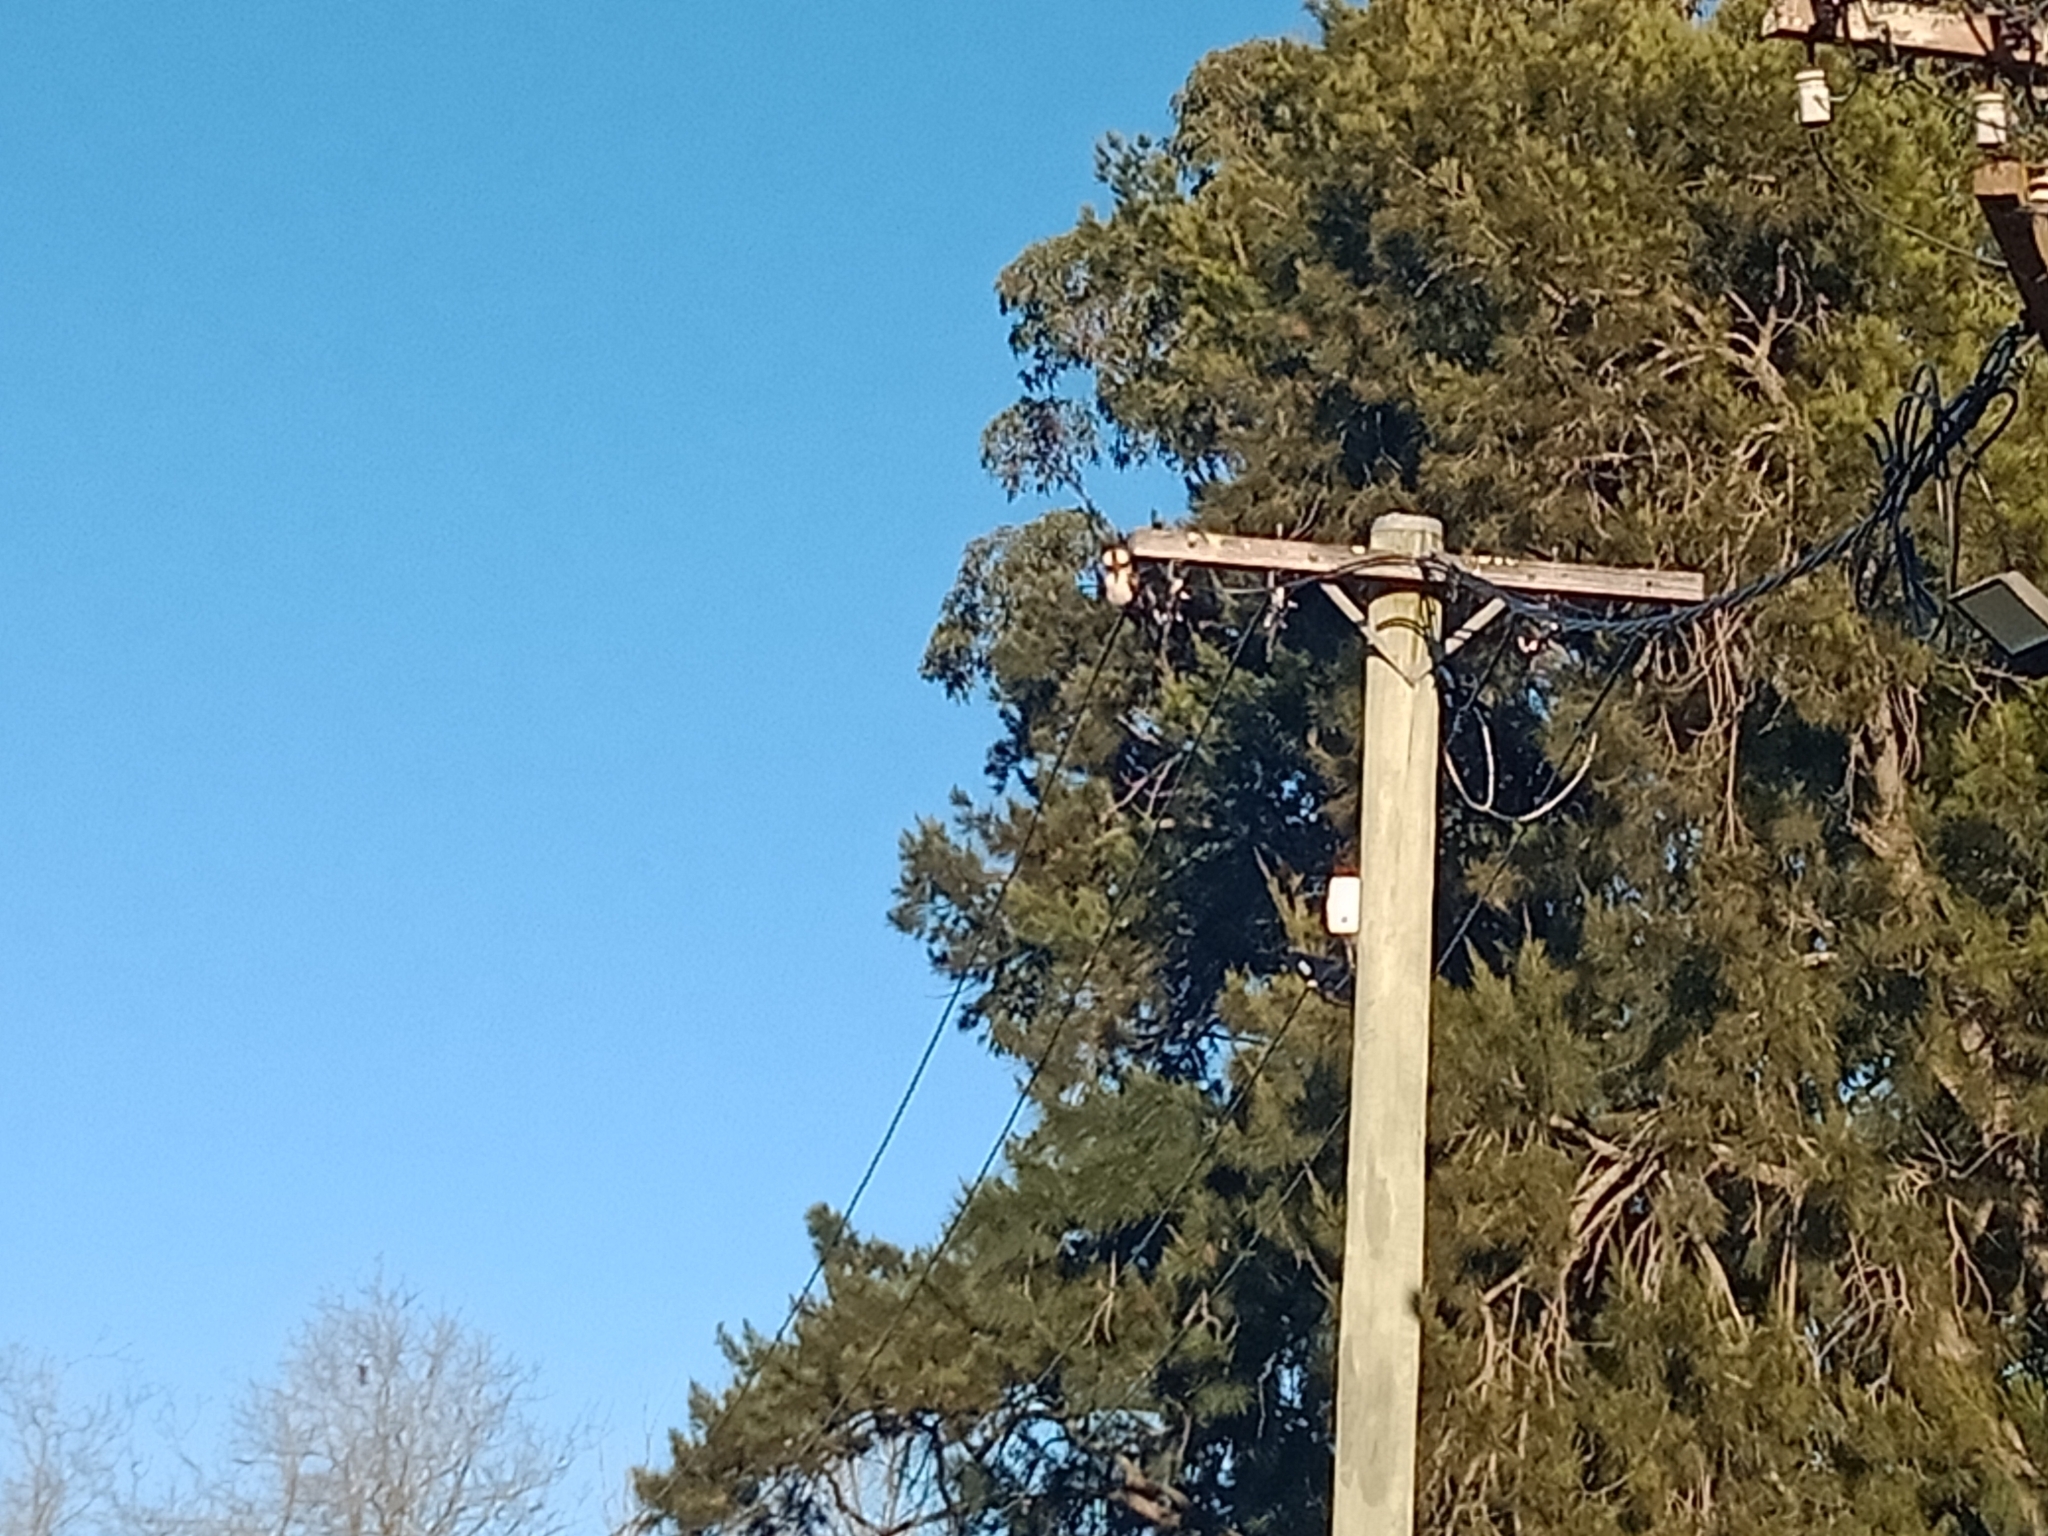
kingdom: Animalia
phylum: Chordata
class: Aves
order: Coraciiformes
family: Alcedinidae
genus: Dacelo
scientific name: Dacelo novaeguineae
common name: Laughing kookaburra
